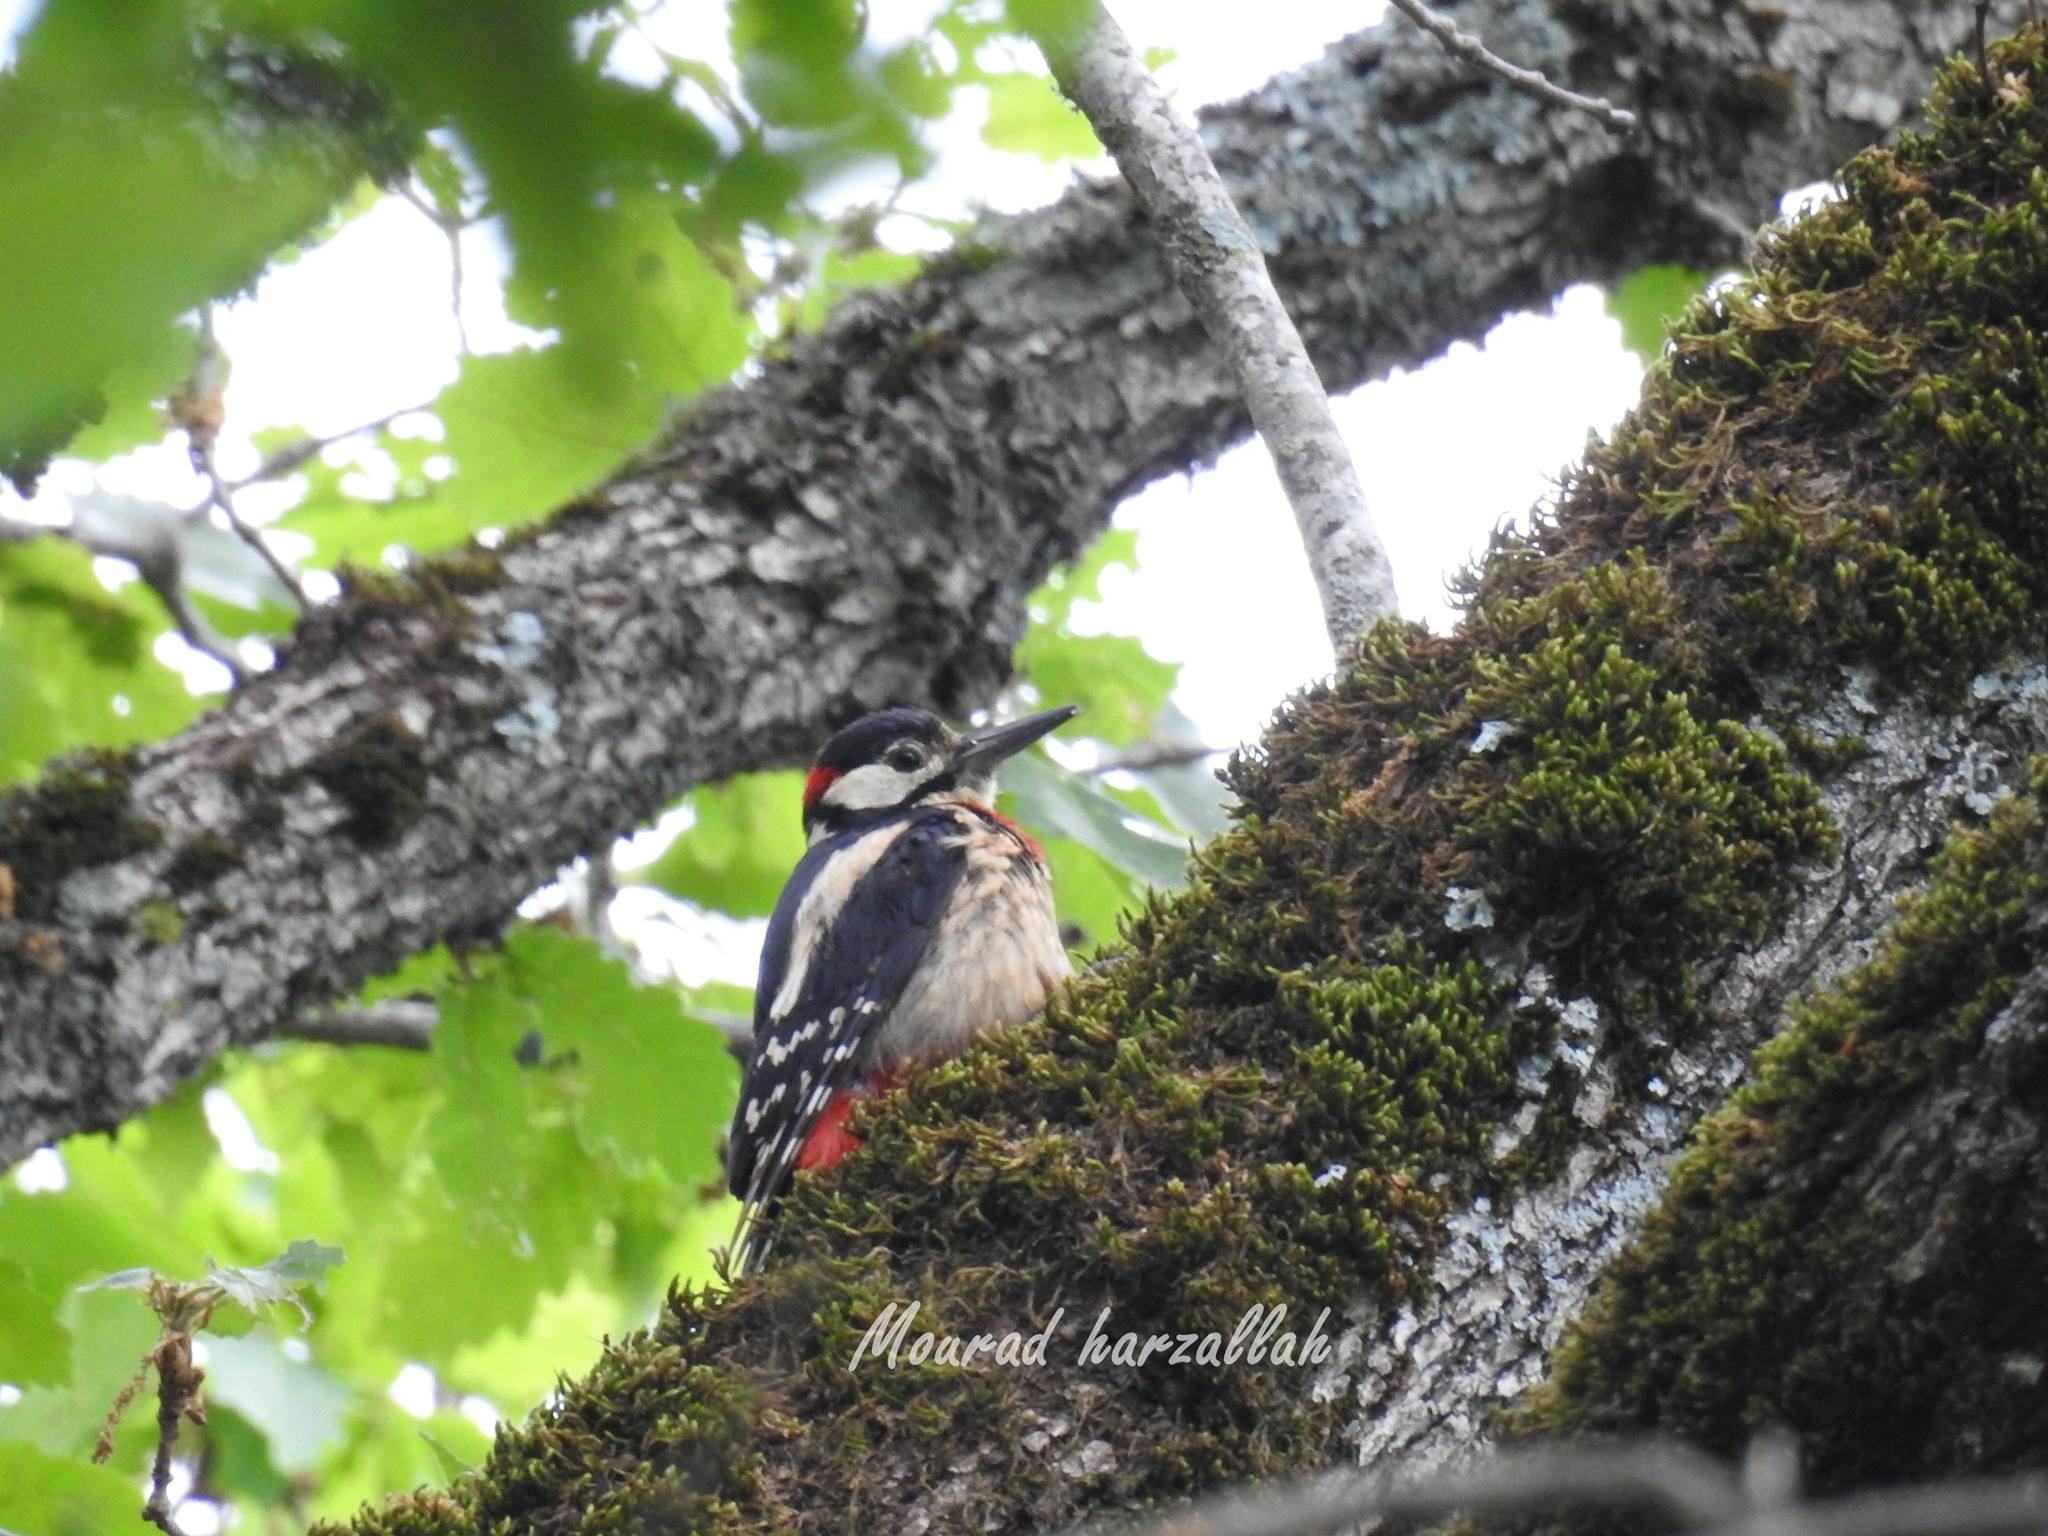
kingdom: Animalia
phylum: Chordata
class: Aves
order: Piciformes
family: Picidae
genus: Dendrocopos
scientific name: Dendrocopos major
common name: Great spotted woodpecker
